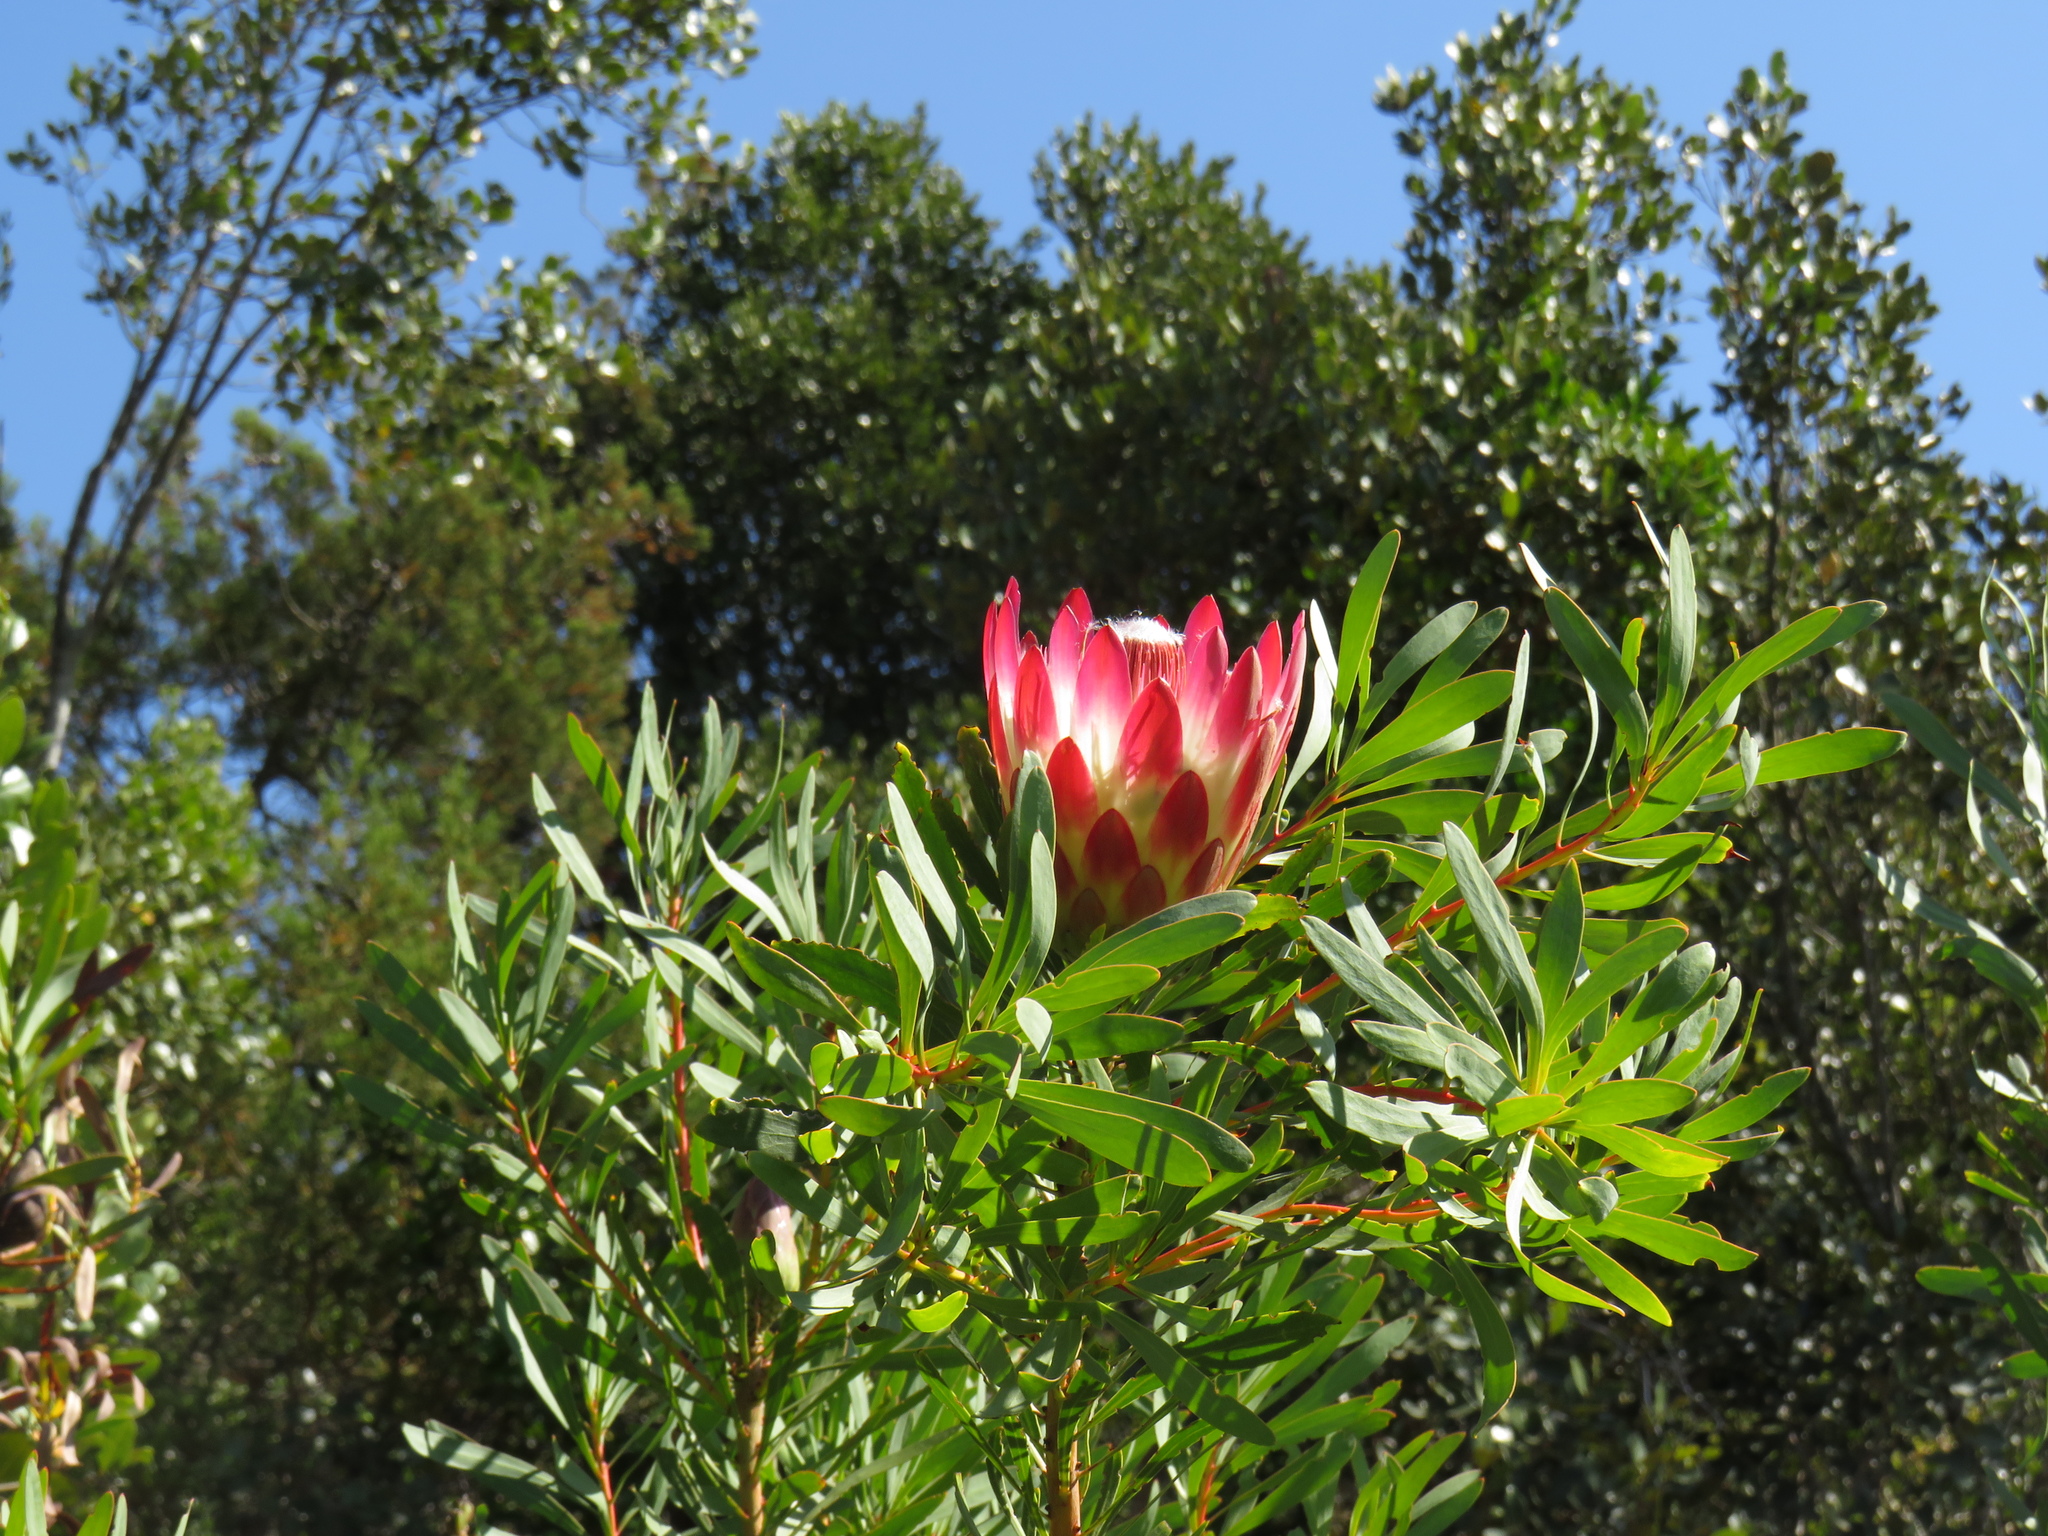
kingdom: Plantae
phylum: Tracheophyta
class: Magnoliopsida
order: Proteales
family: Proteaceae
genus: Protea
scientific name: Protea repens
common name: Sugarbush
